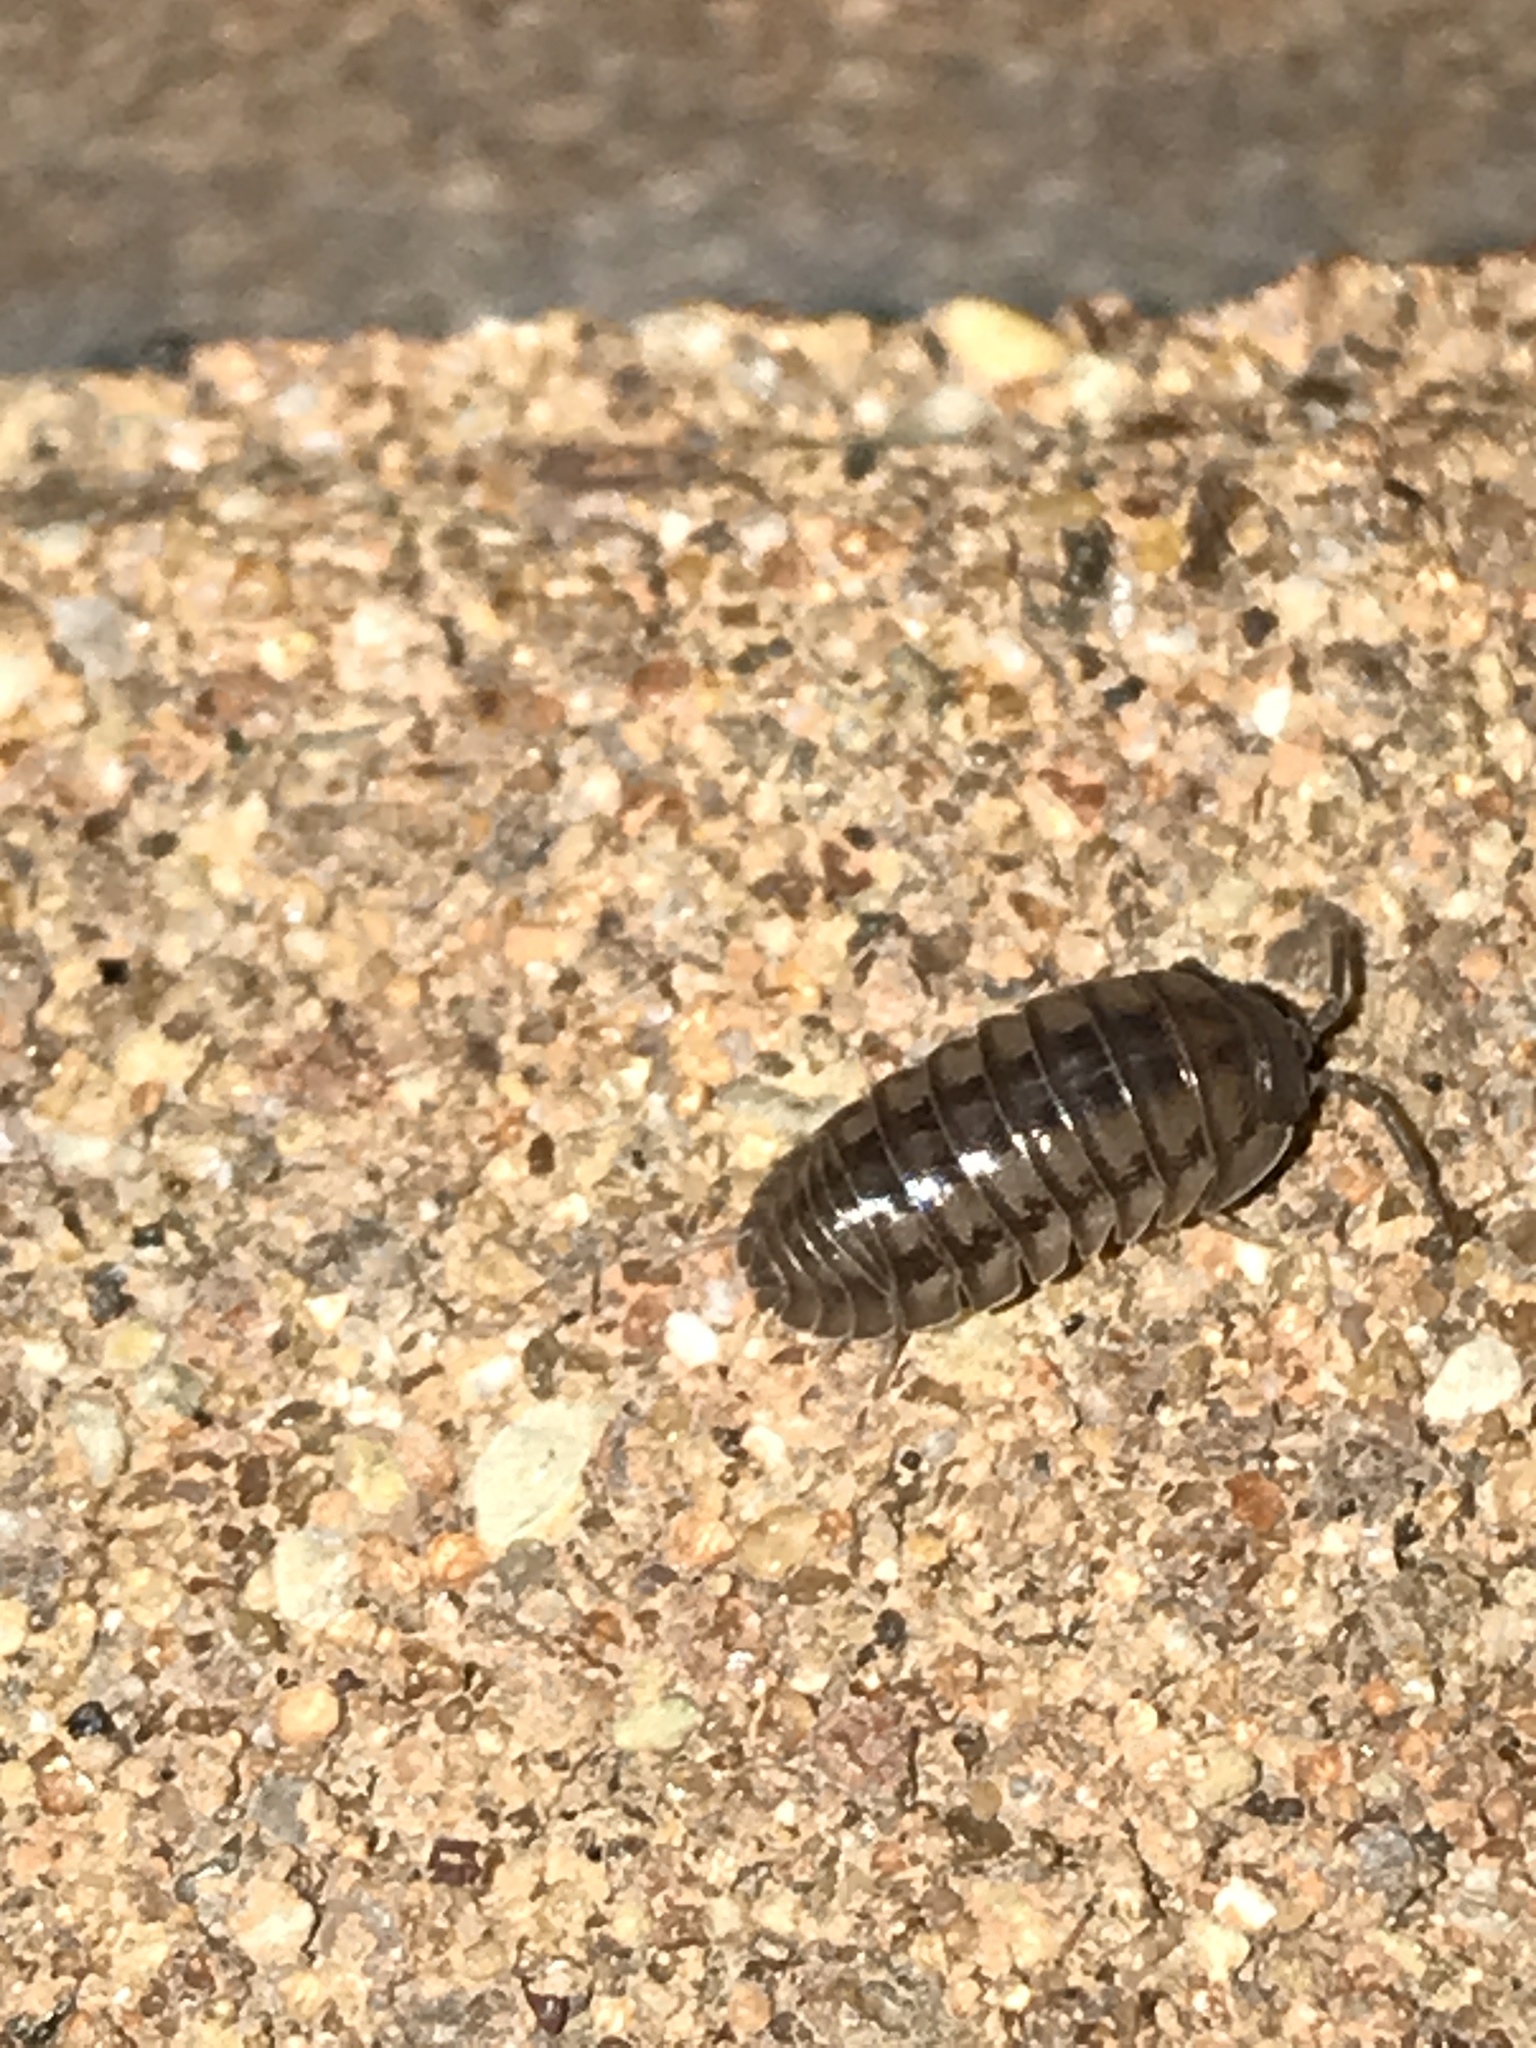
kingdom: Animalia
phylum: Arthropoda
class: Malacostraca
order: Isopoda
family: Armadillidiidae
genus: Armadillidium
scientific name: Armadillidium nasatum
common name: Isopod
